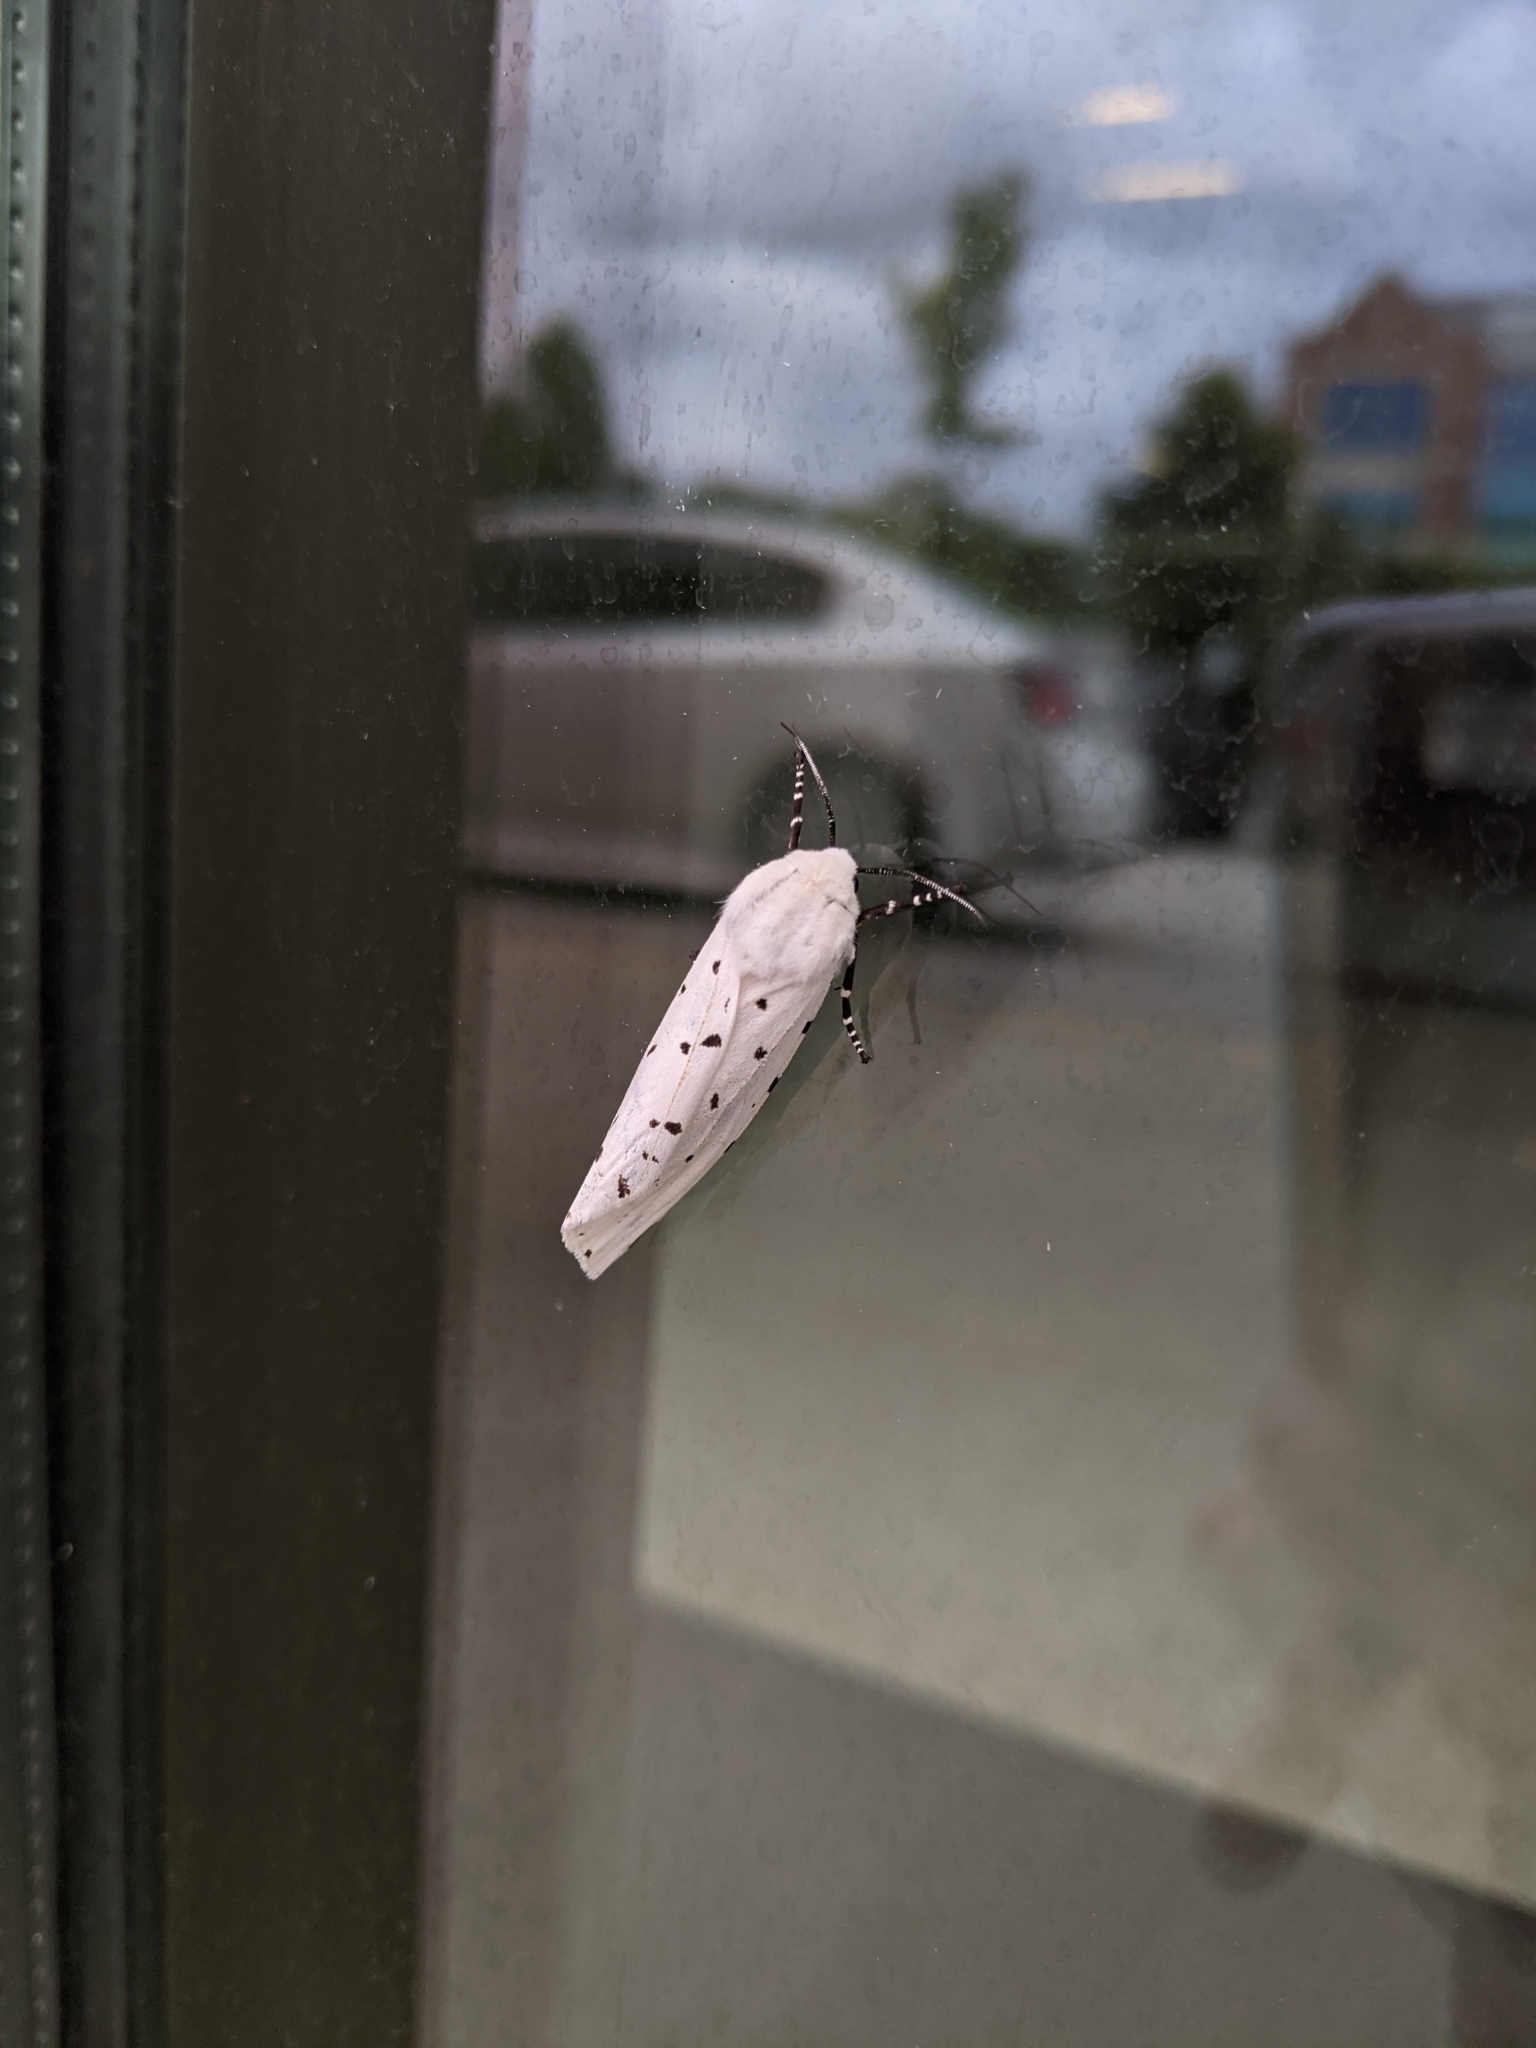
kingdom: Animalia
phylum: Arthropoda
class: Insecta
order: Lepidoptera
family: Erebidae
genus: Estigmene
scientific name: Estigmene acrea
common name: Salt marsh moth
